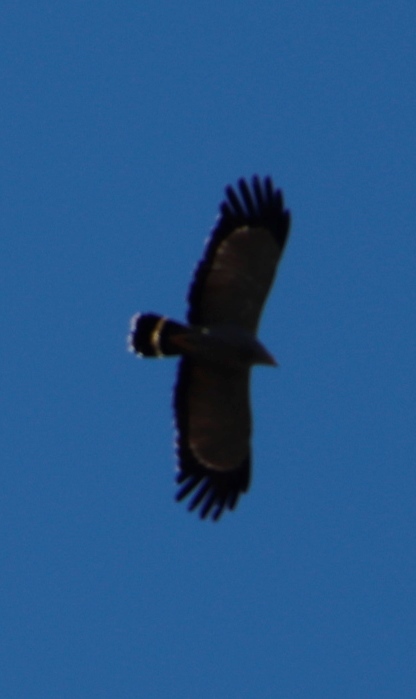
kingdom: Animalia
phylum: Chordata
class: Aves
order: Accipitriformes
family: Accipitridae
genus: Polyboroides
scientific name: Polyboroides typus
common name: African harrier-hawk
